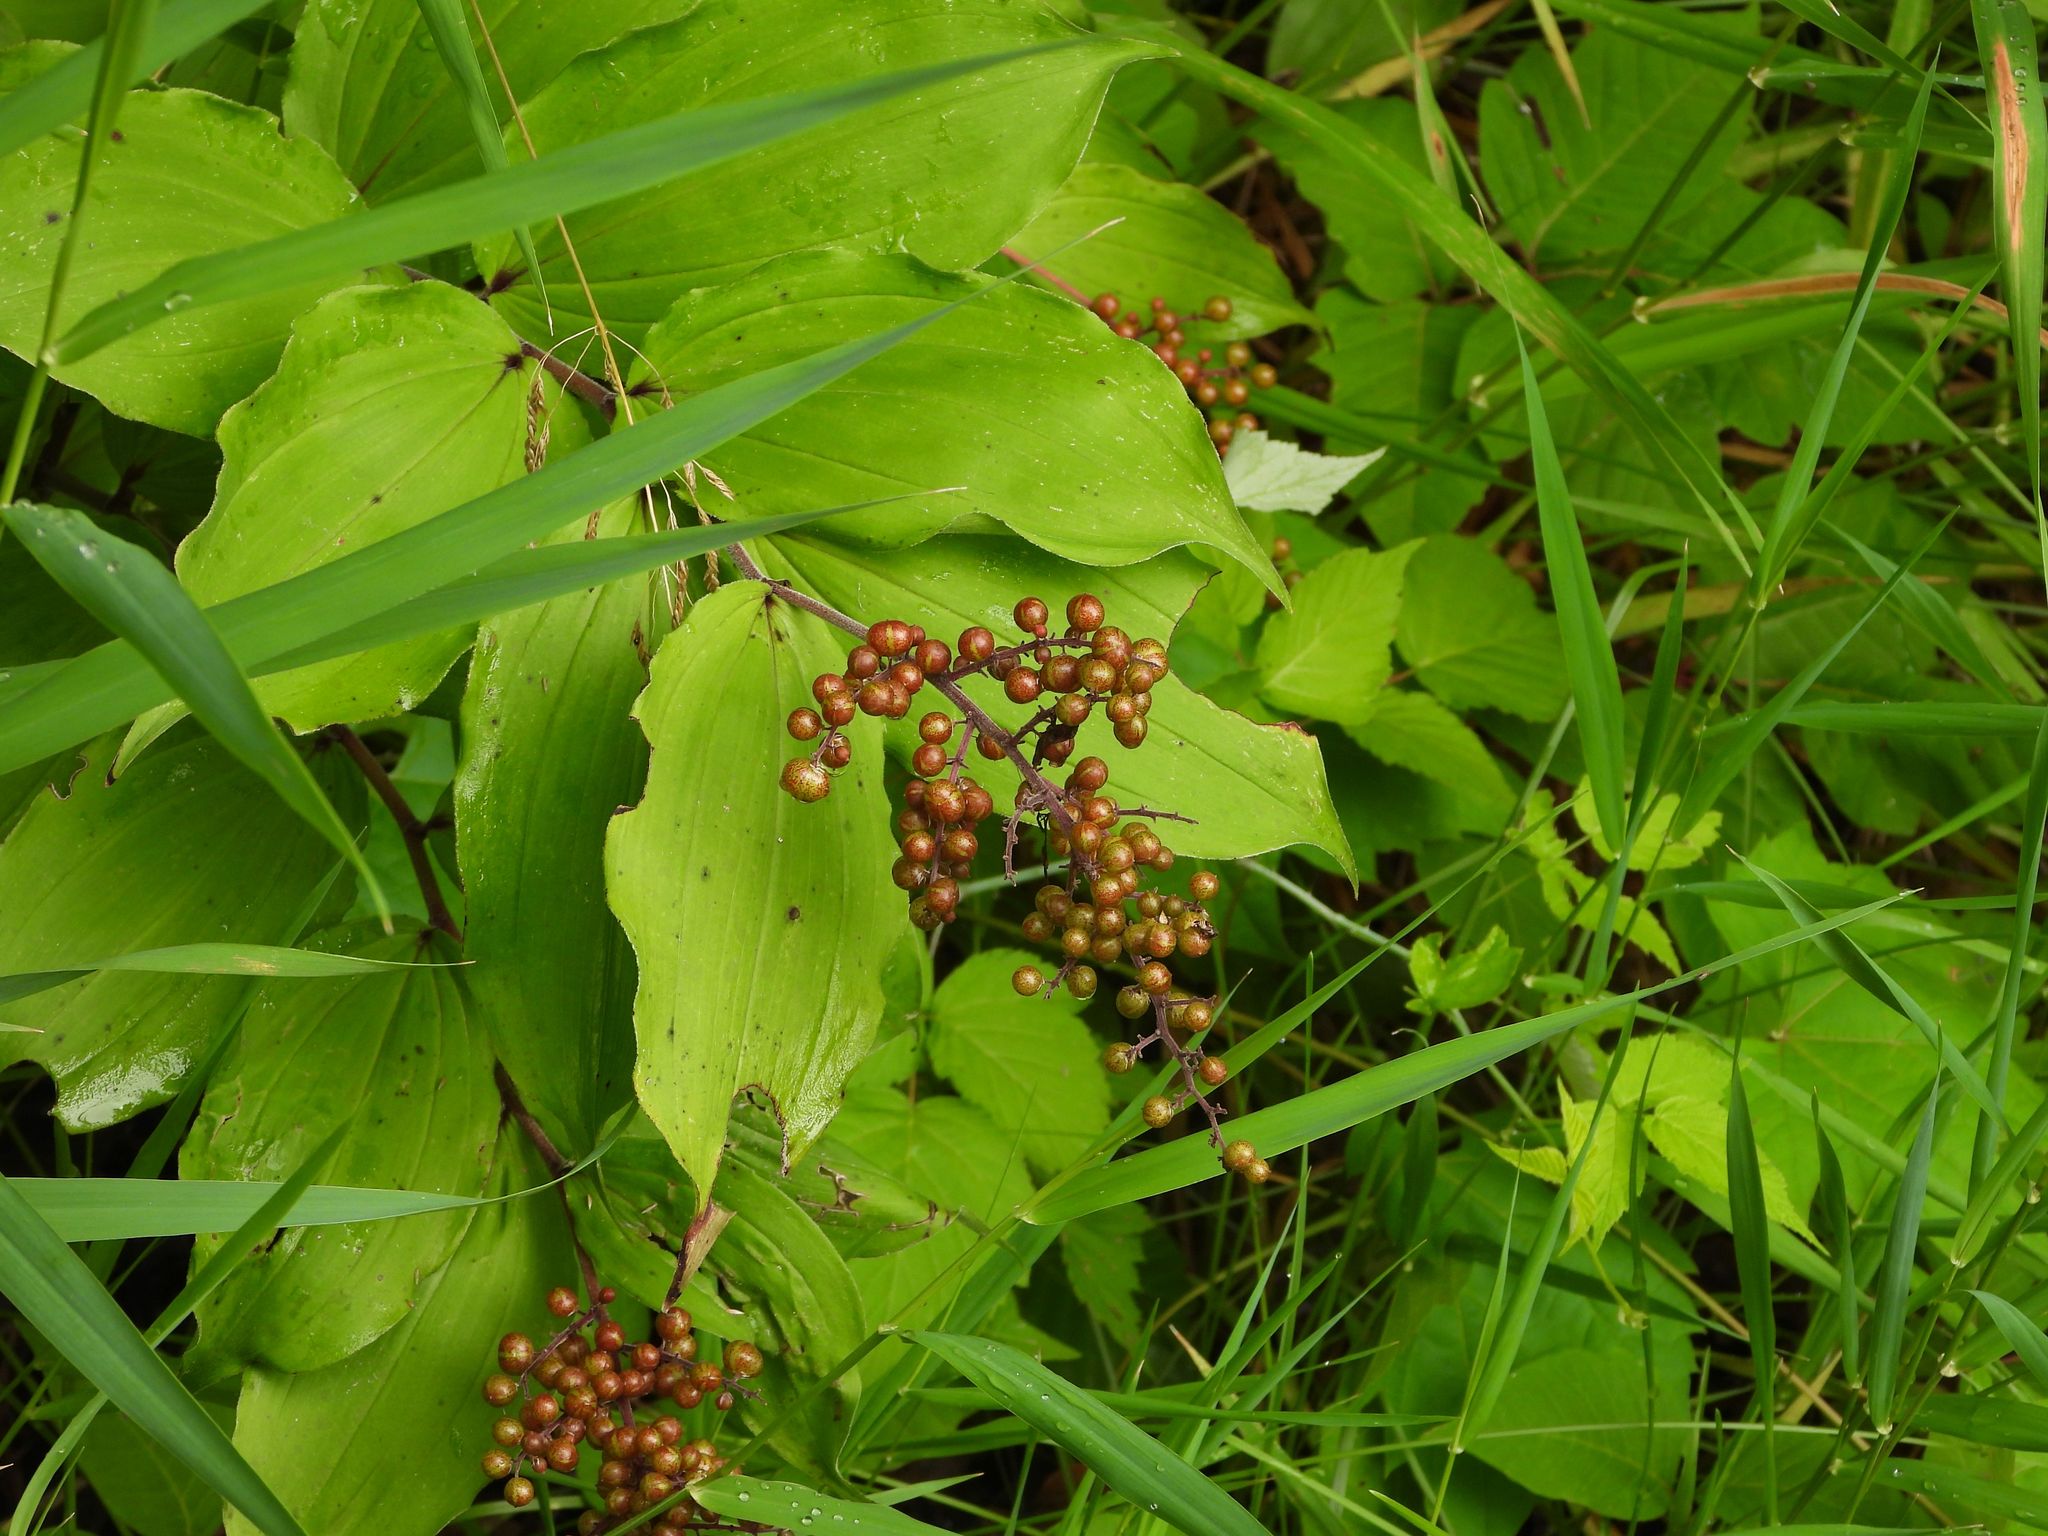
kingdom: Plantae
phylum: Tracheophyta
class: Liliopsida
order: Asparagales
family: Asparagaceae
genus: Maianthemum
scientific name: Maianthemum racemosum
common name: False spikenard
